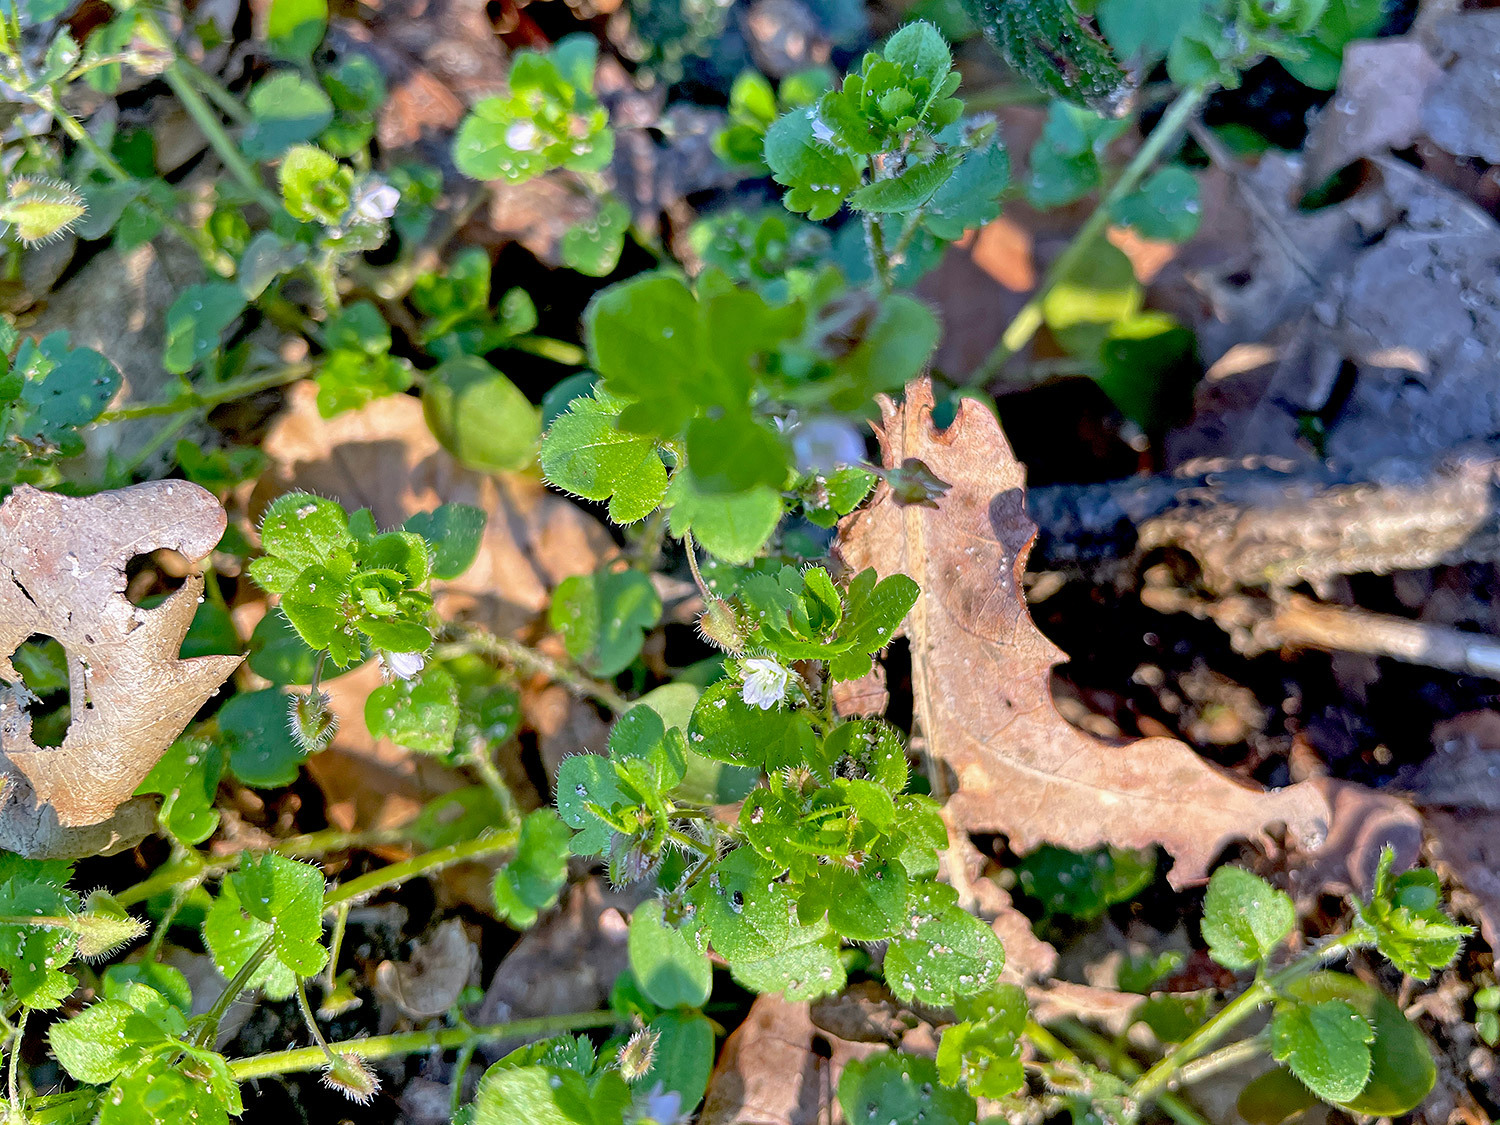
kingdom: Plantae
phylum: Tracheophyta
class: Magnoliopsida
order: Lamiales
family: Plantaginaceae
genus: Veronica
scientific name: Veronica sublobata
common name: False ivy-leaved speedwell
